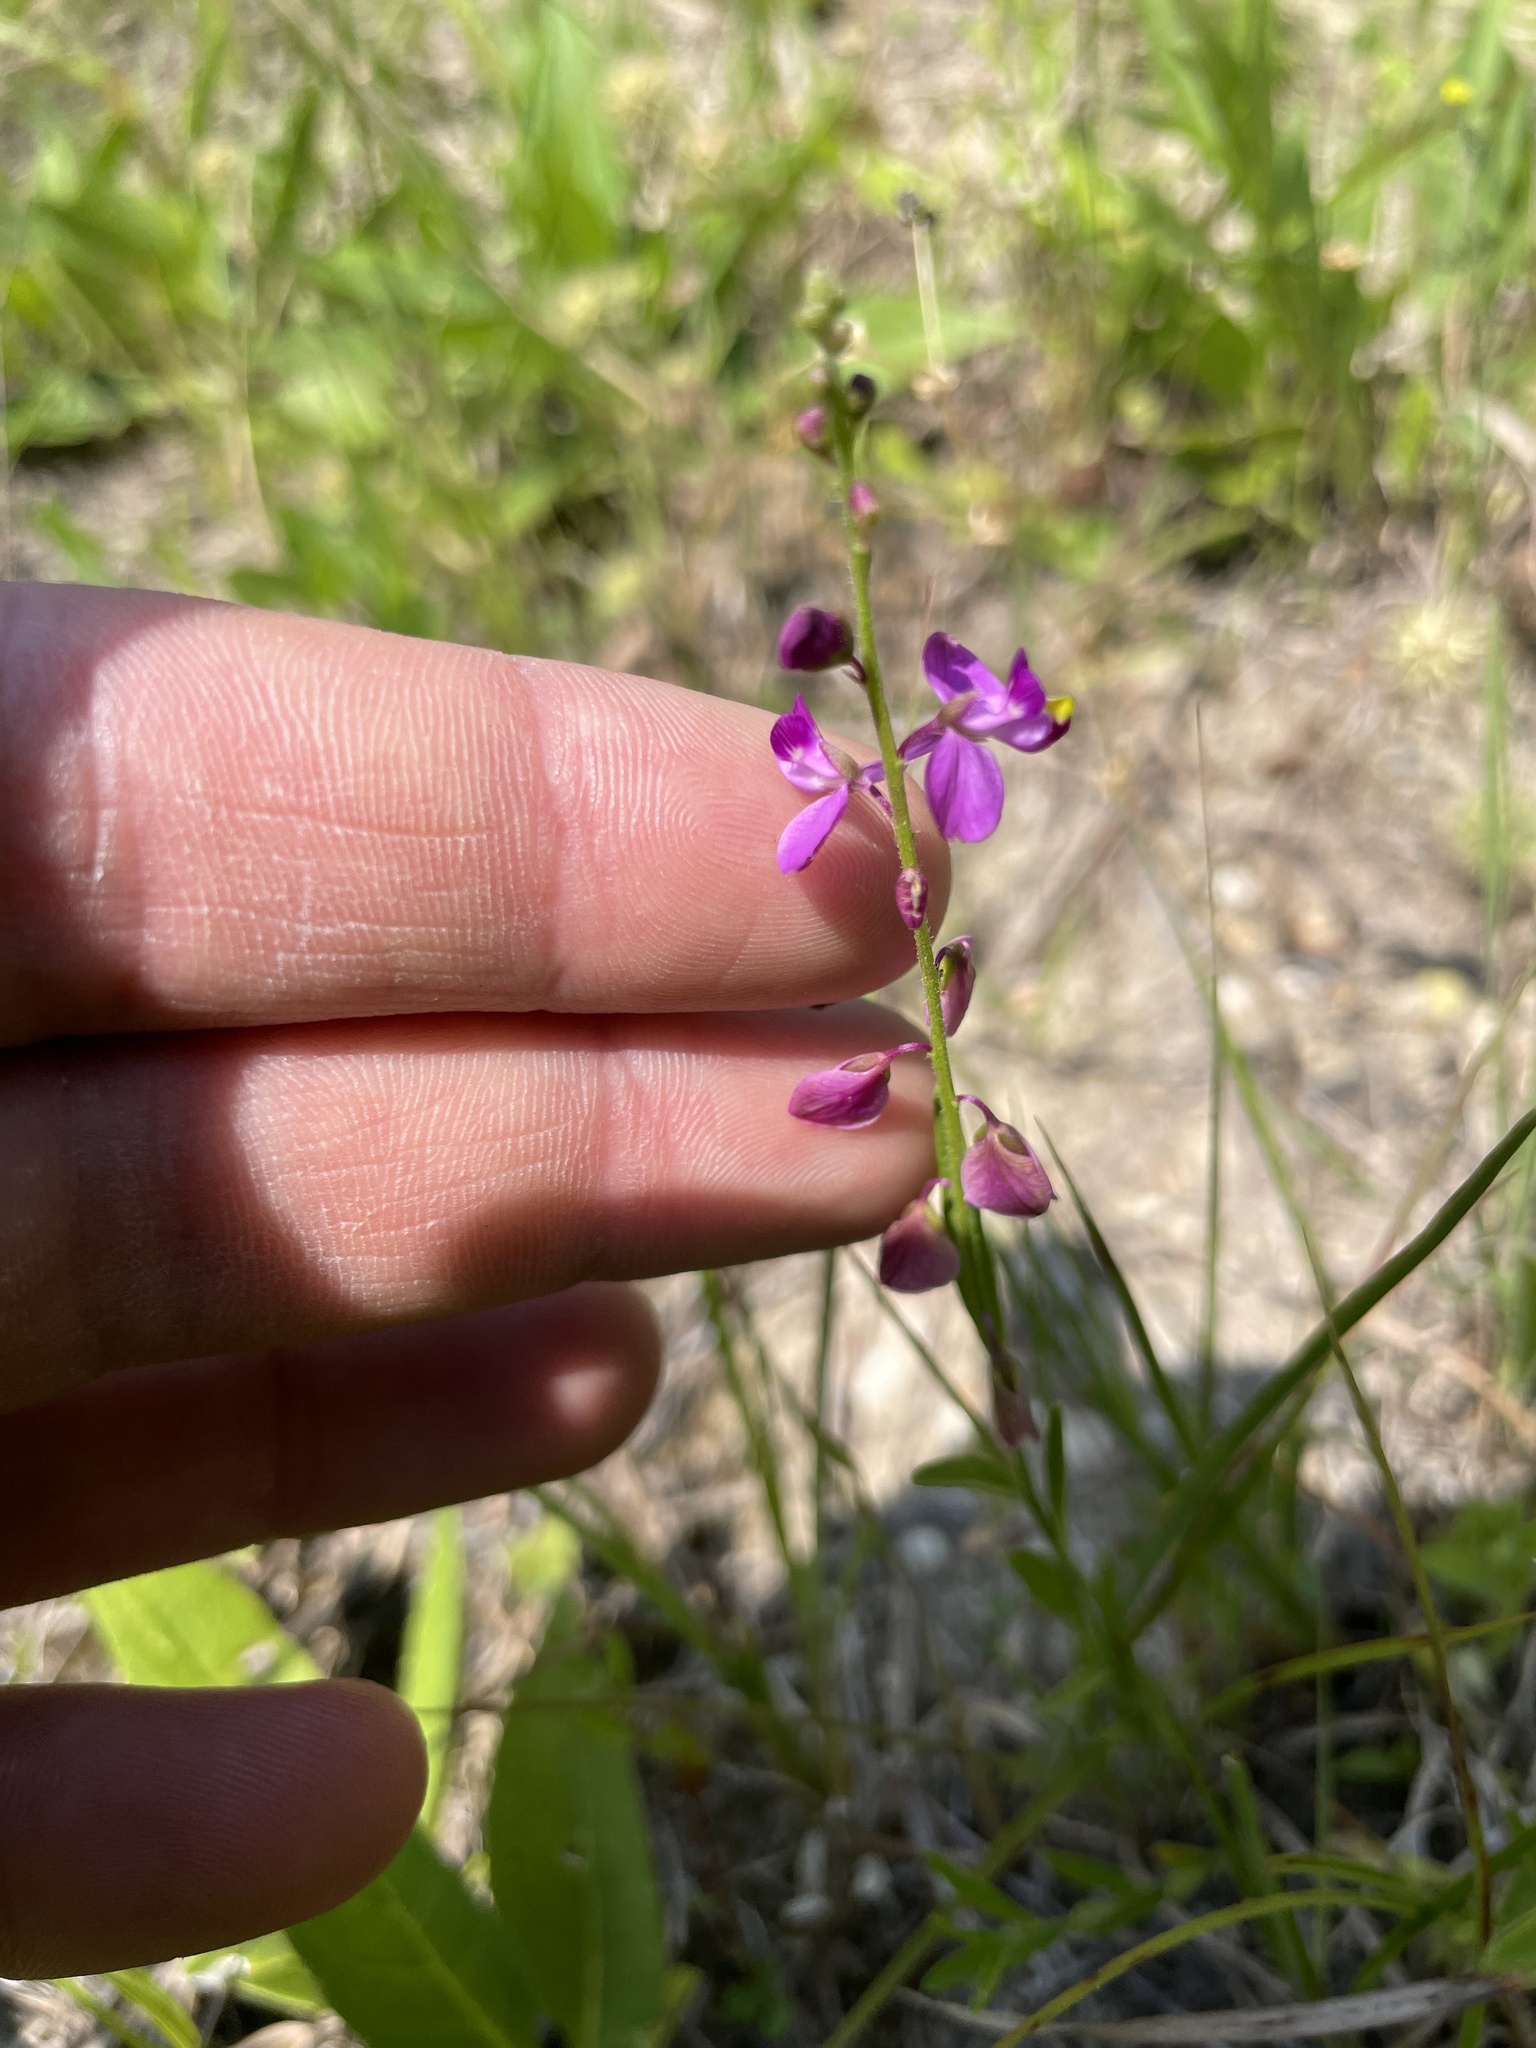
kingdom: Plantae
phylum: Tracheophyta
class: Magnoliopsida
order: Fabales
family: Polygalaceae
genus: Asemeia
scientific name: Asemeia grandiflora
